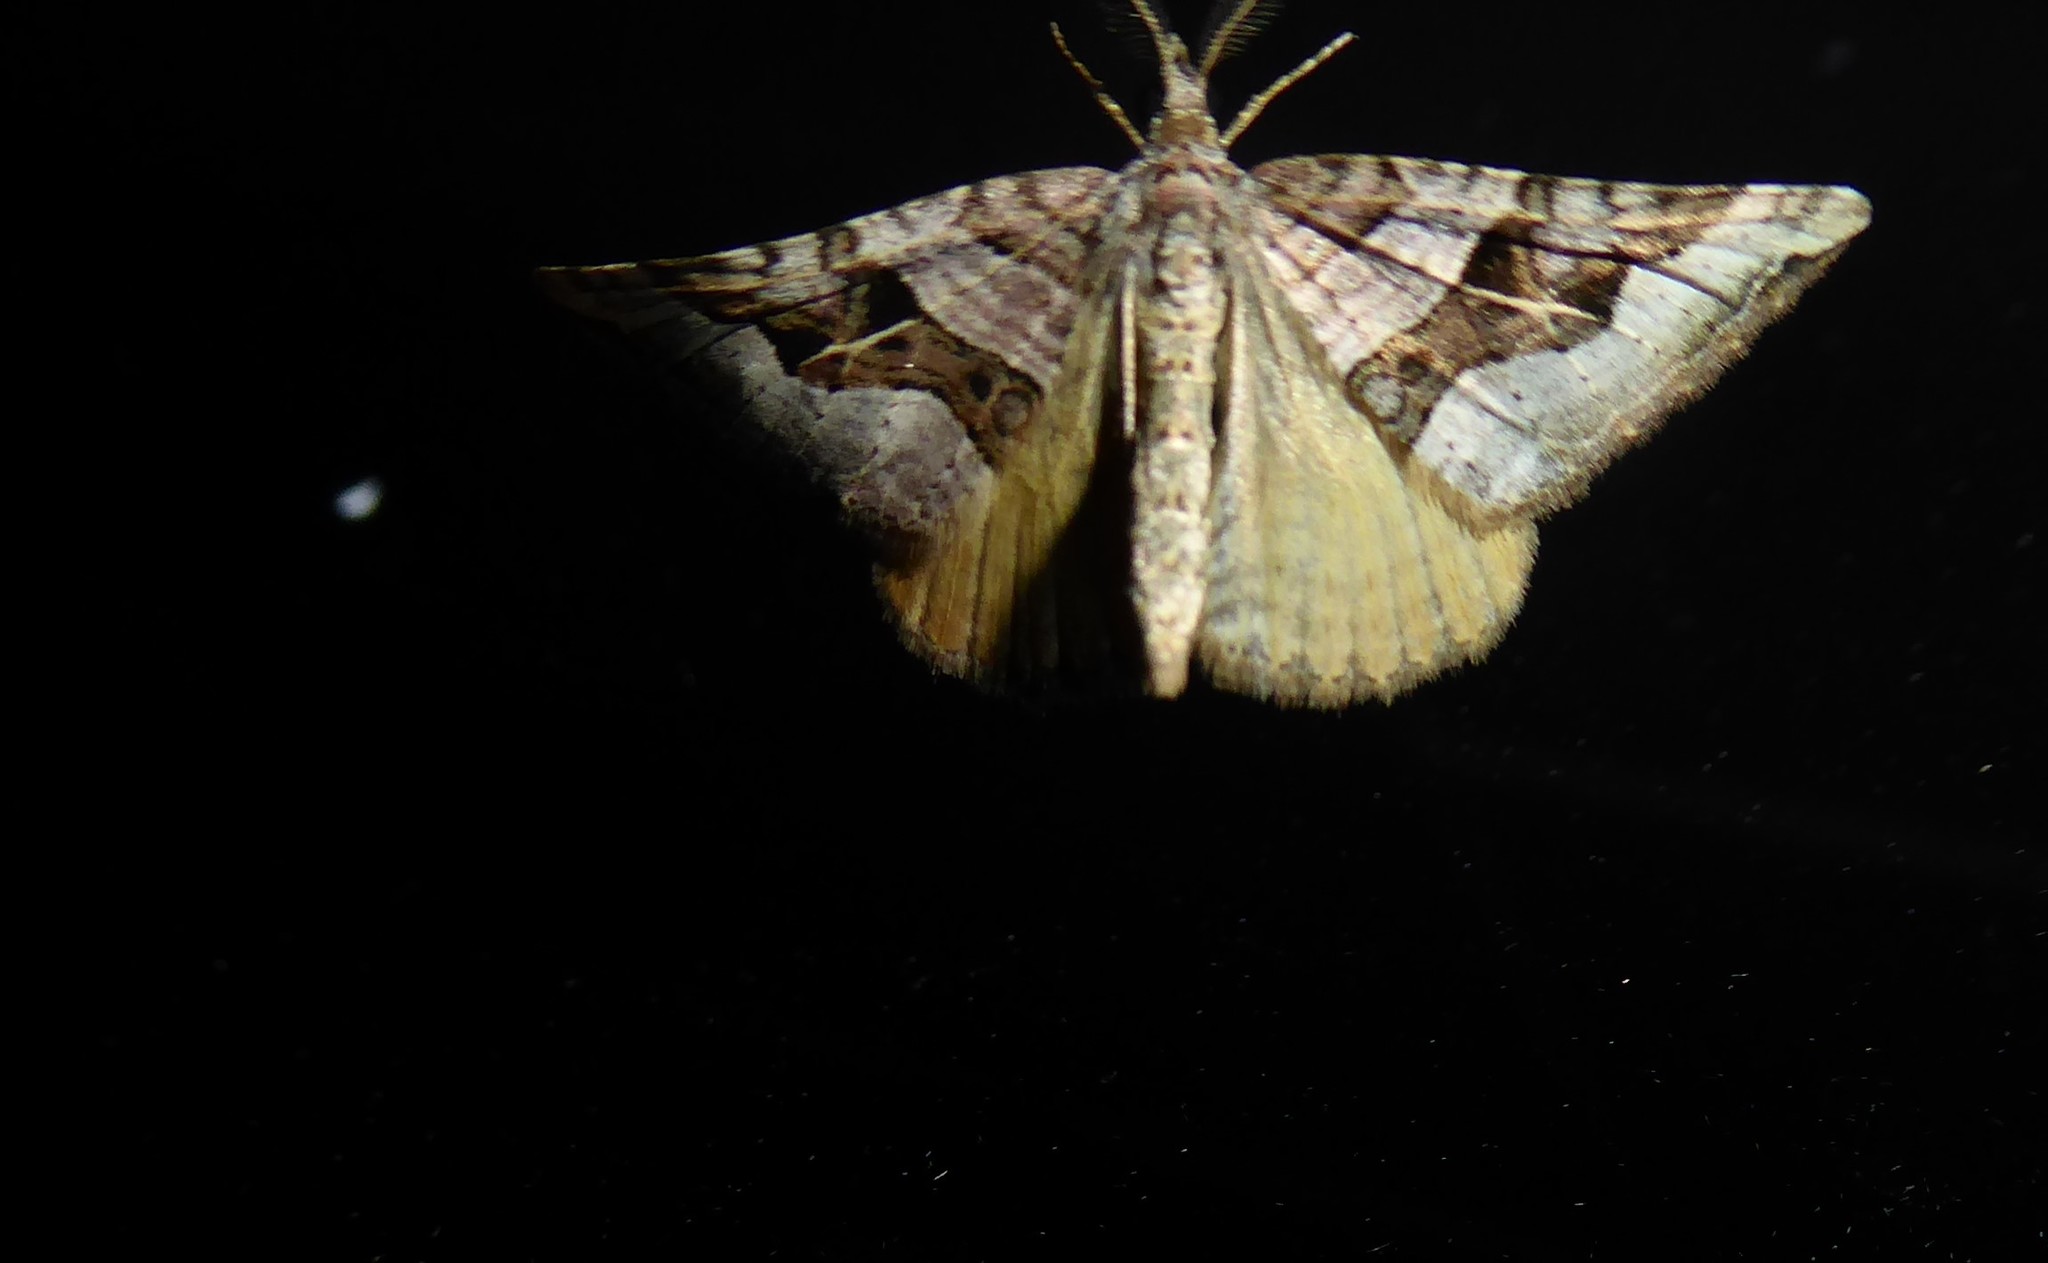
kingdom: Animalia
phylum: Arthropoda
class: Insecta
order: Lepidoptera
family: Geometridae
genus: Xanthorhoe
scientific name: Xanthorhoe semifissata
